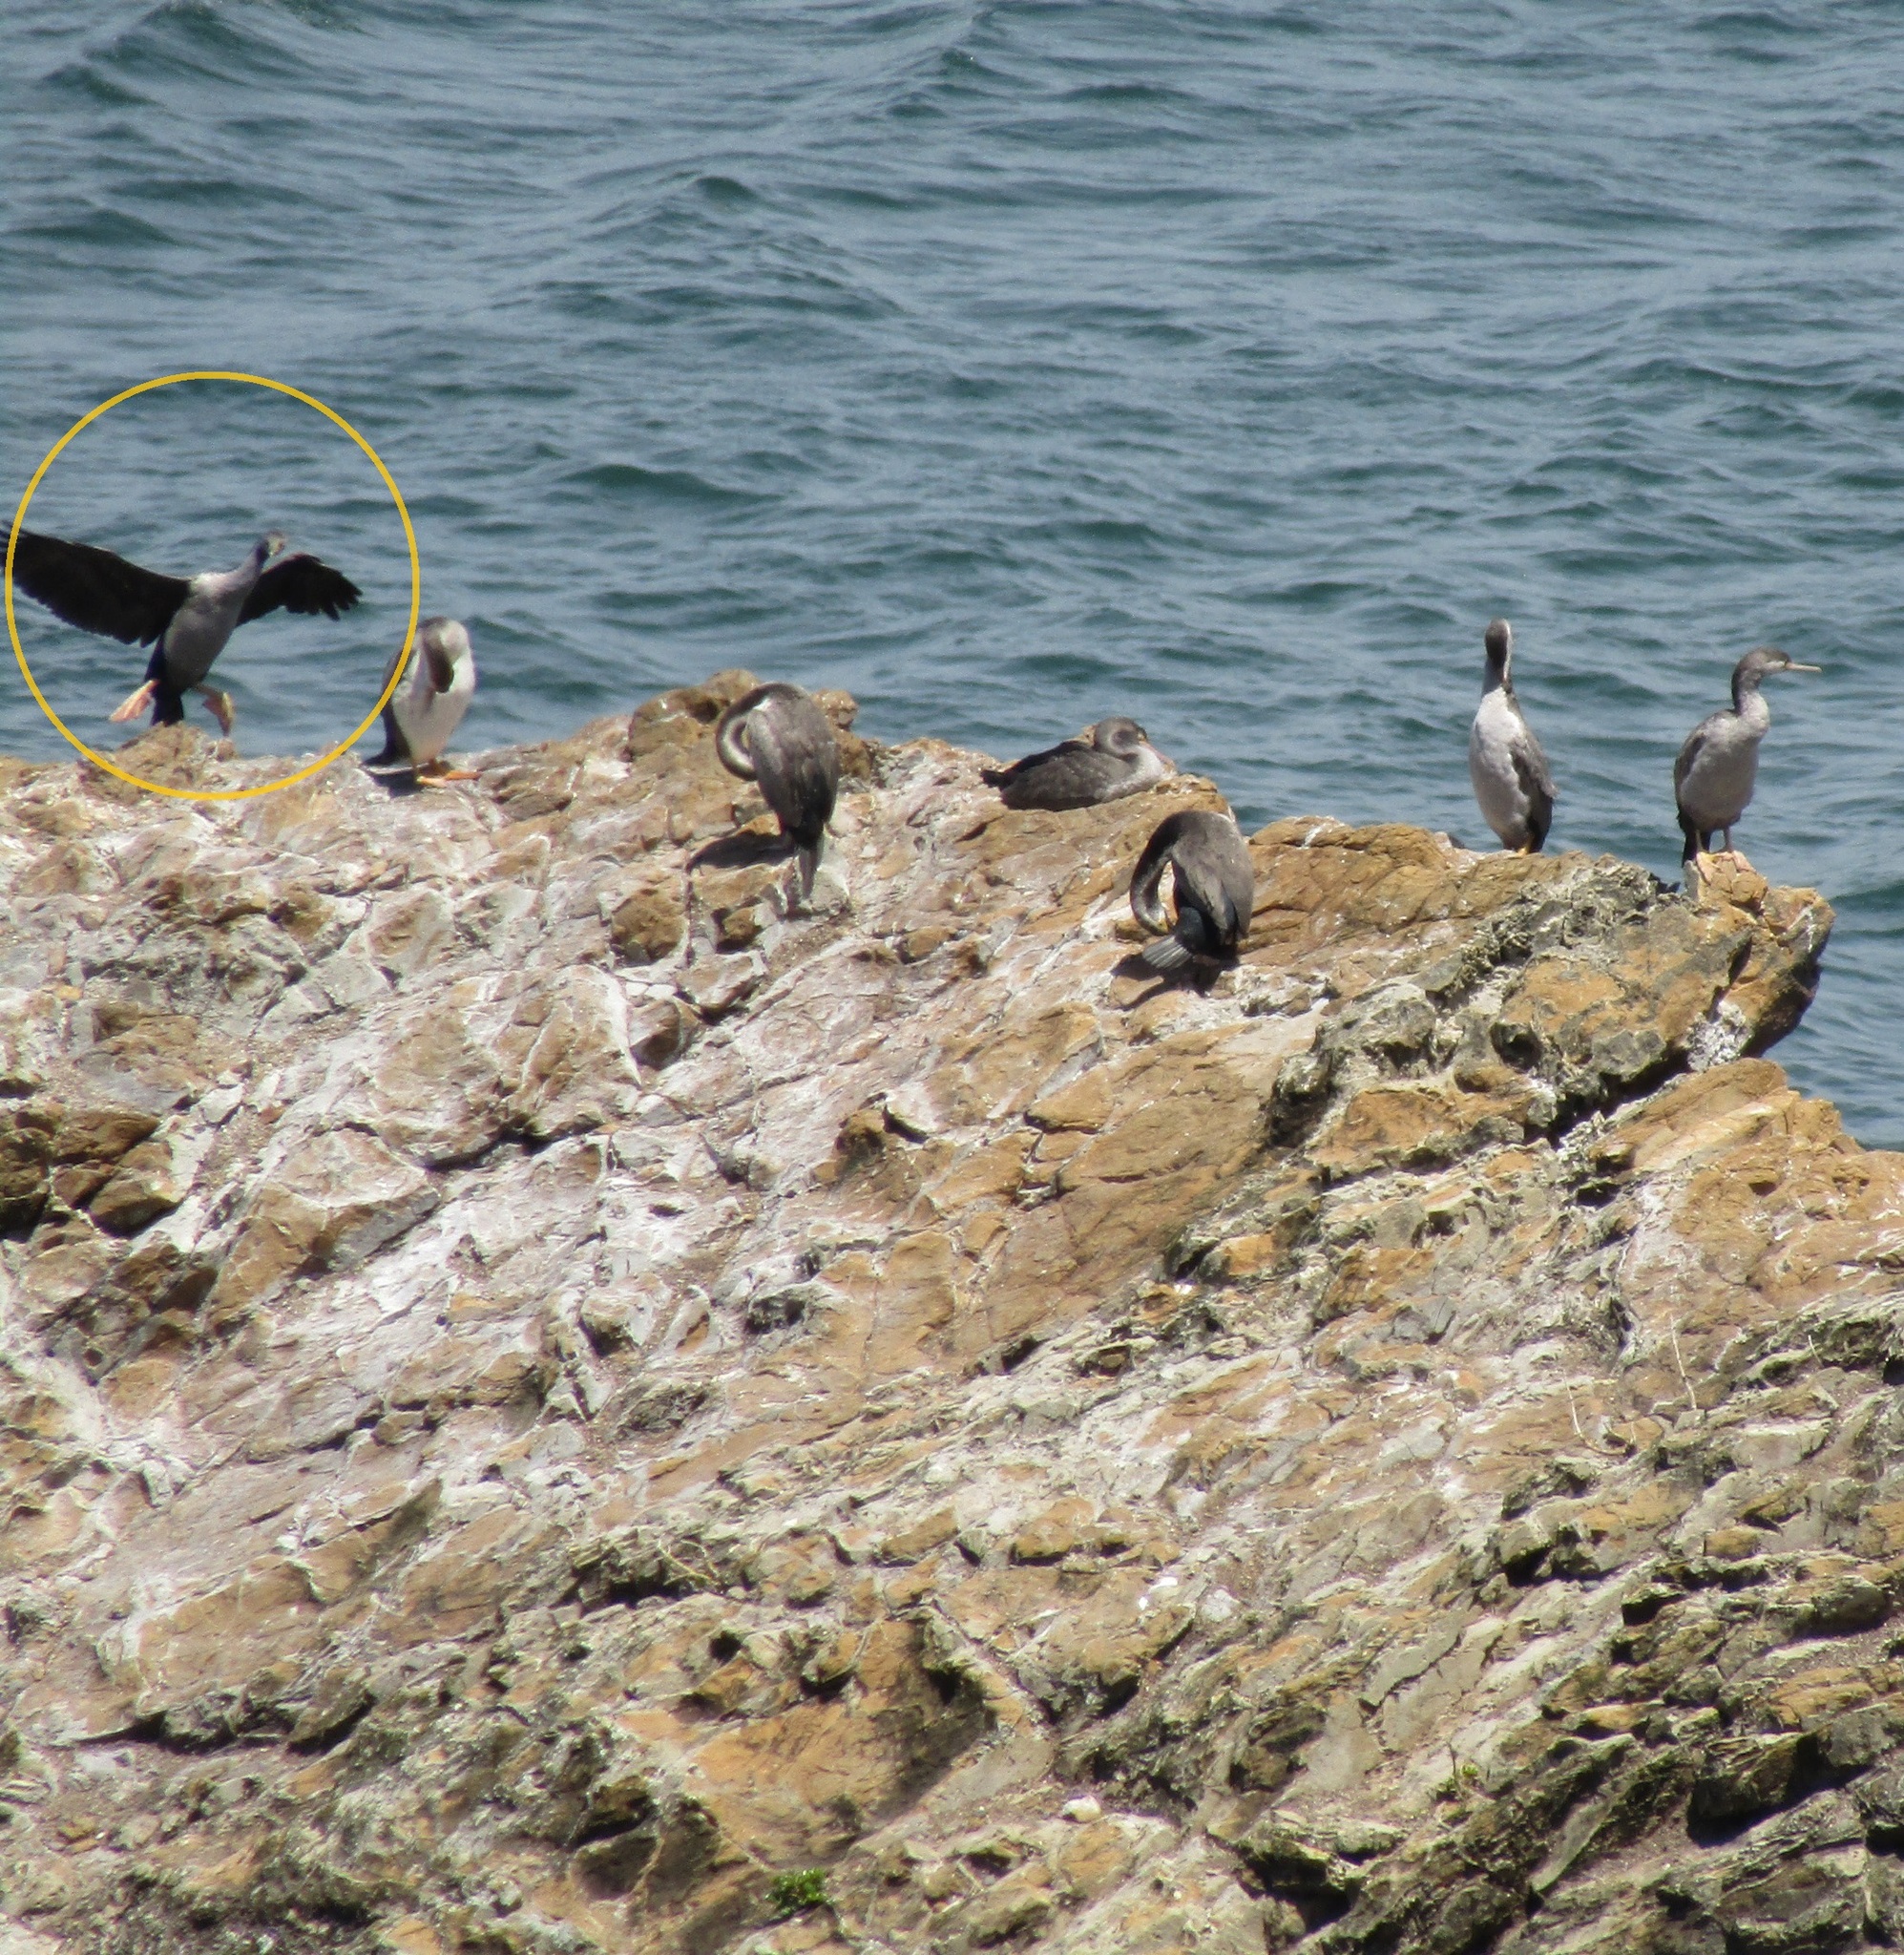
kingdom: Animalia
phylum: Chordata
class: Aves
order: Suliformes
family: Phalacrocoracidae
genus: Phalacrocorax
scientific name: Phalacrocorax punctatus
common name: Spotted shag
